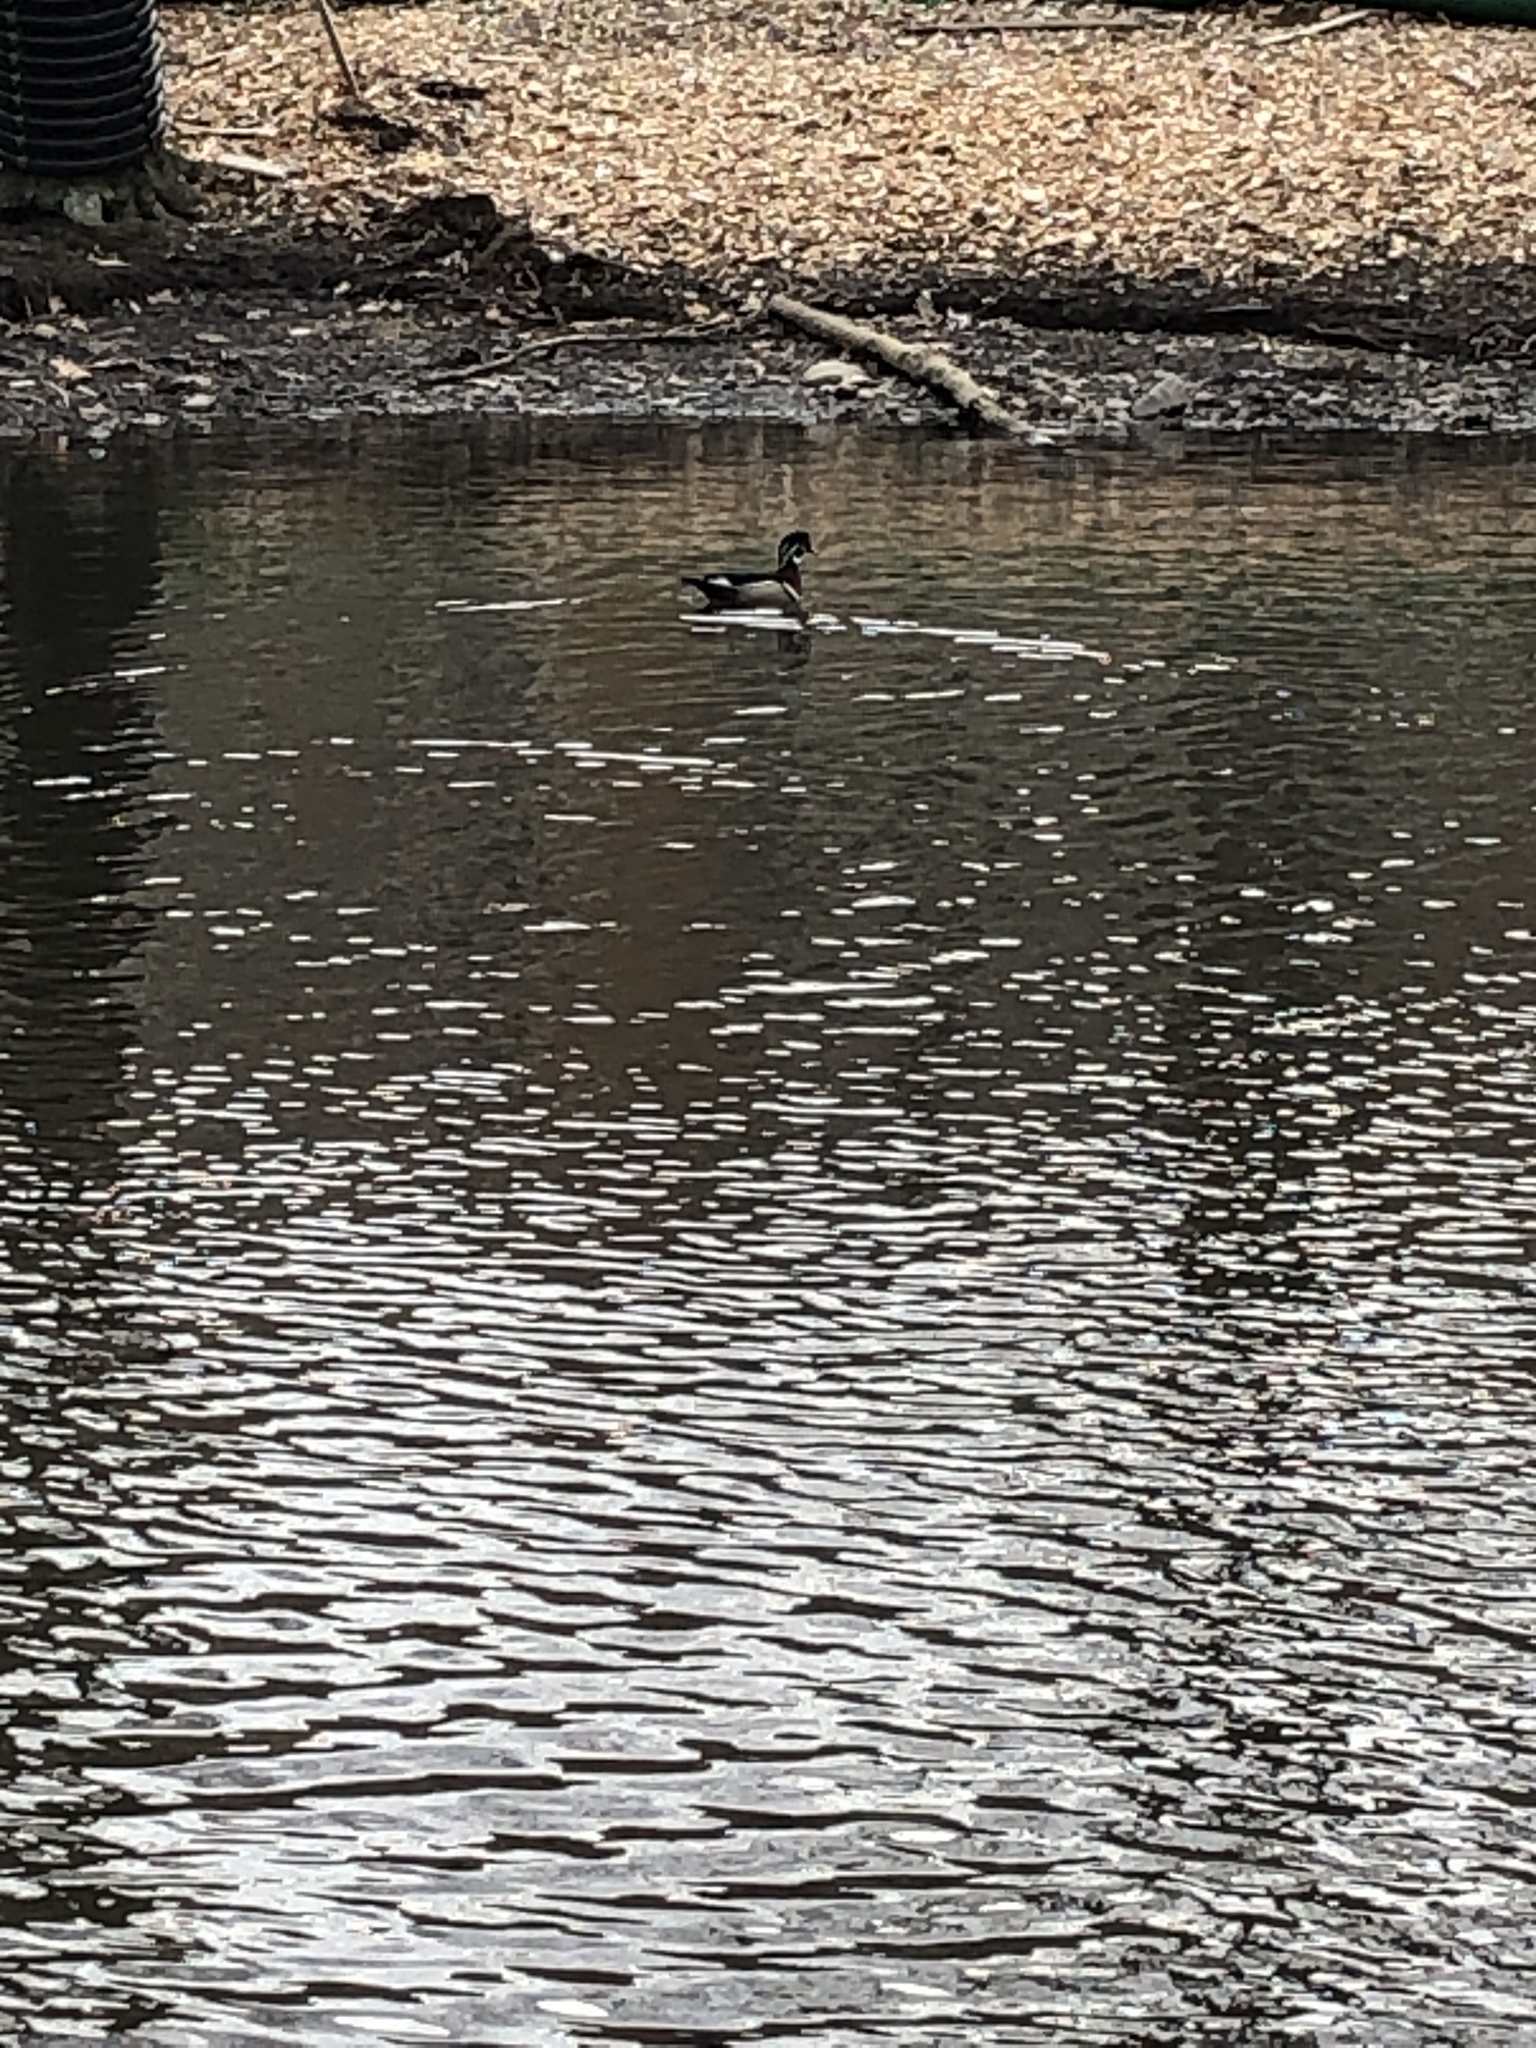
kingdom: Animalia
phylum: Chordata
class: Aves
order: Anseriformes
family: Anatidae
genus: Aix
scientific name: Aix sponsa
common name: Wood duck
